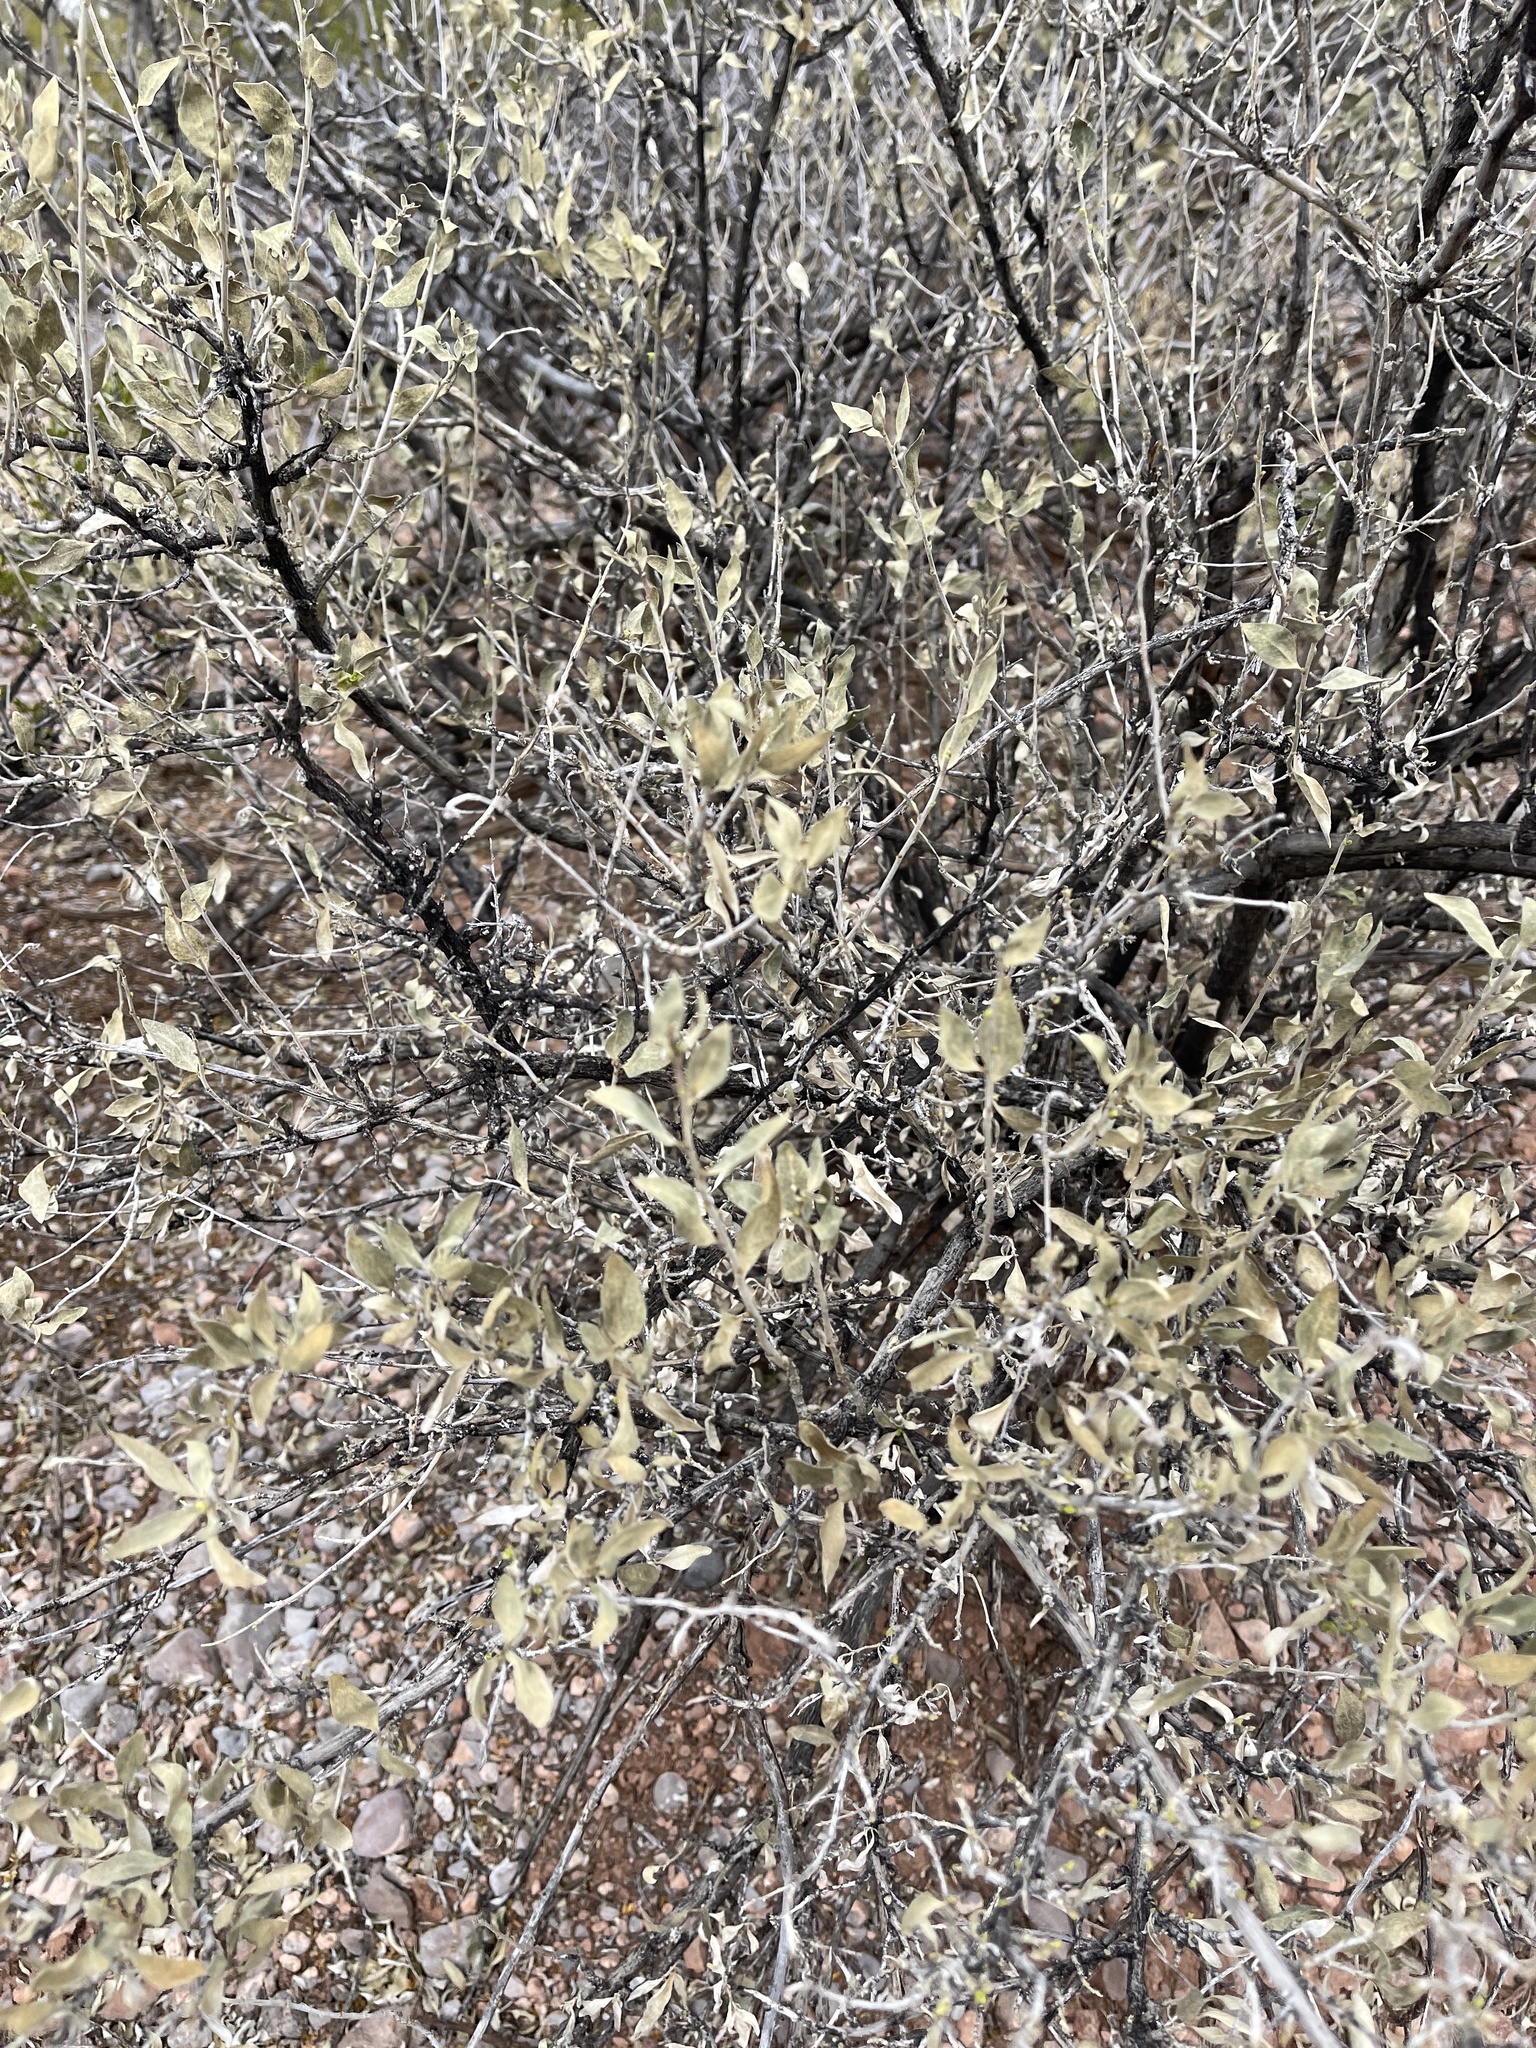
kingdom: Plantae
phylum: Tracheophyta
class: Magnoliopsida
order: Asterales
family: Asteraceae
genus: Flourensia
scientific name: Flourensia cernua
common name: Varnishbush
